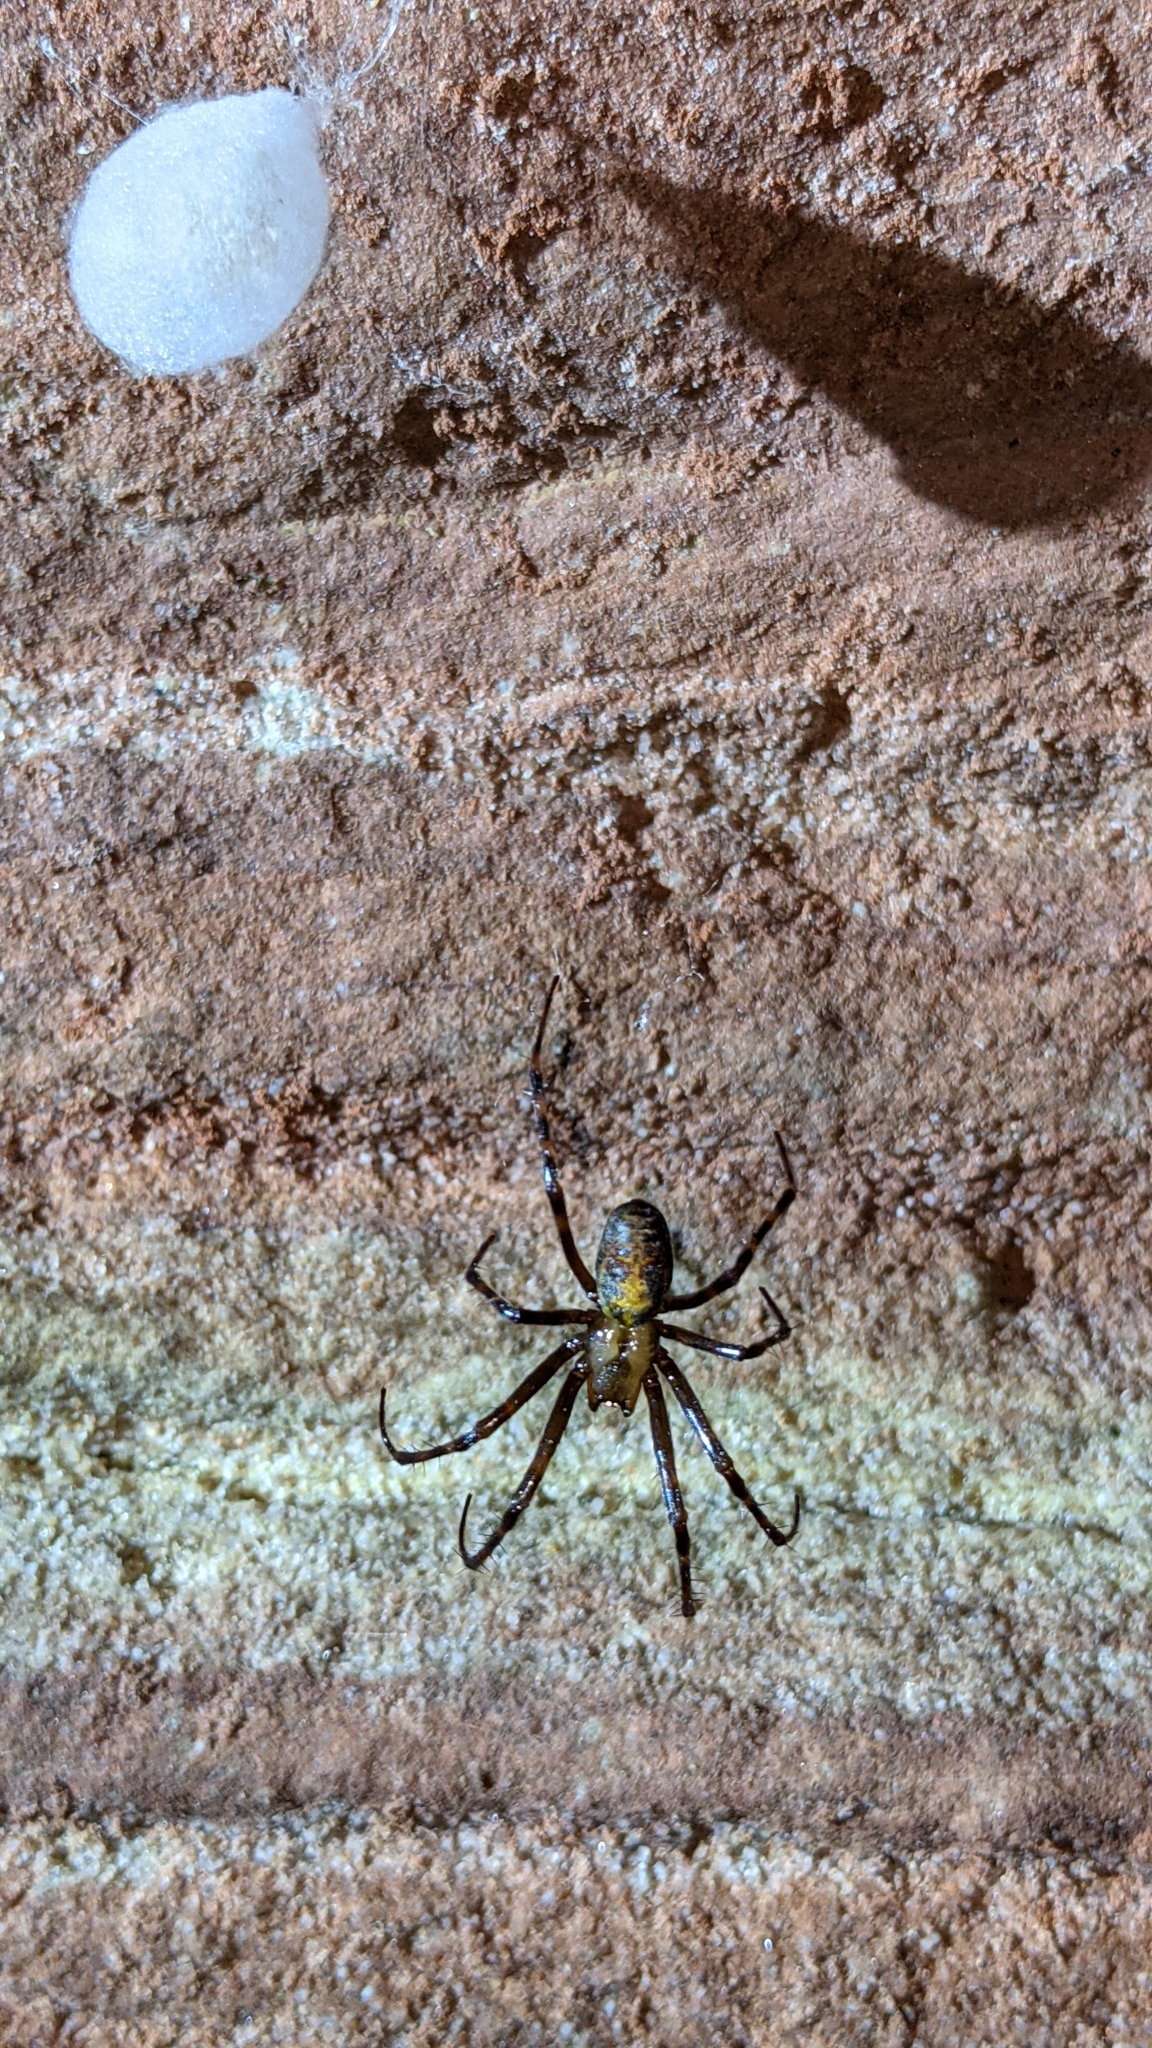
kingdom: Animalia
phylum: Arthropoda
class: Arachnida
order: Araneae
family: Tetragnathidae
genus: Meta
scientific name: Meta menardi
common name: Cave spider
